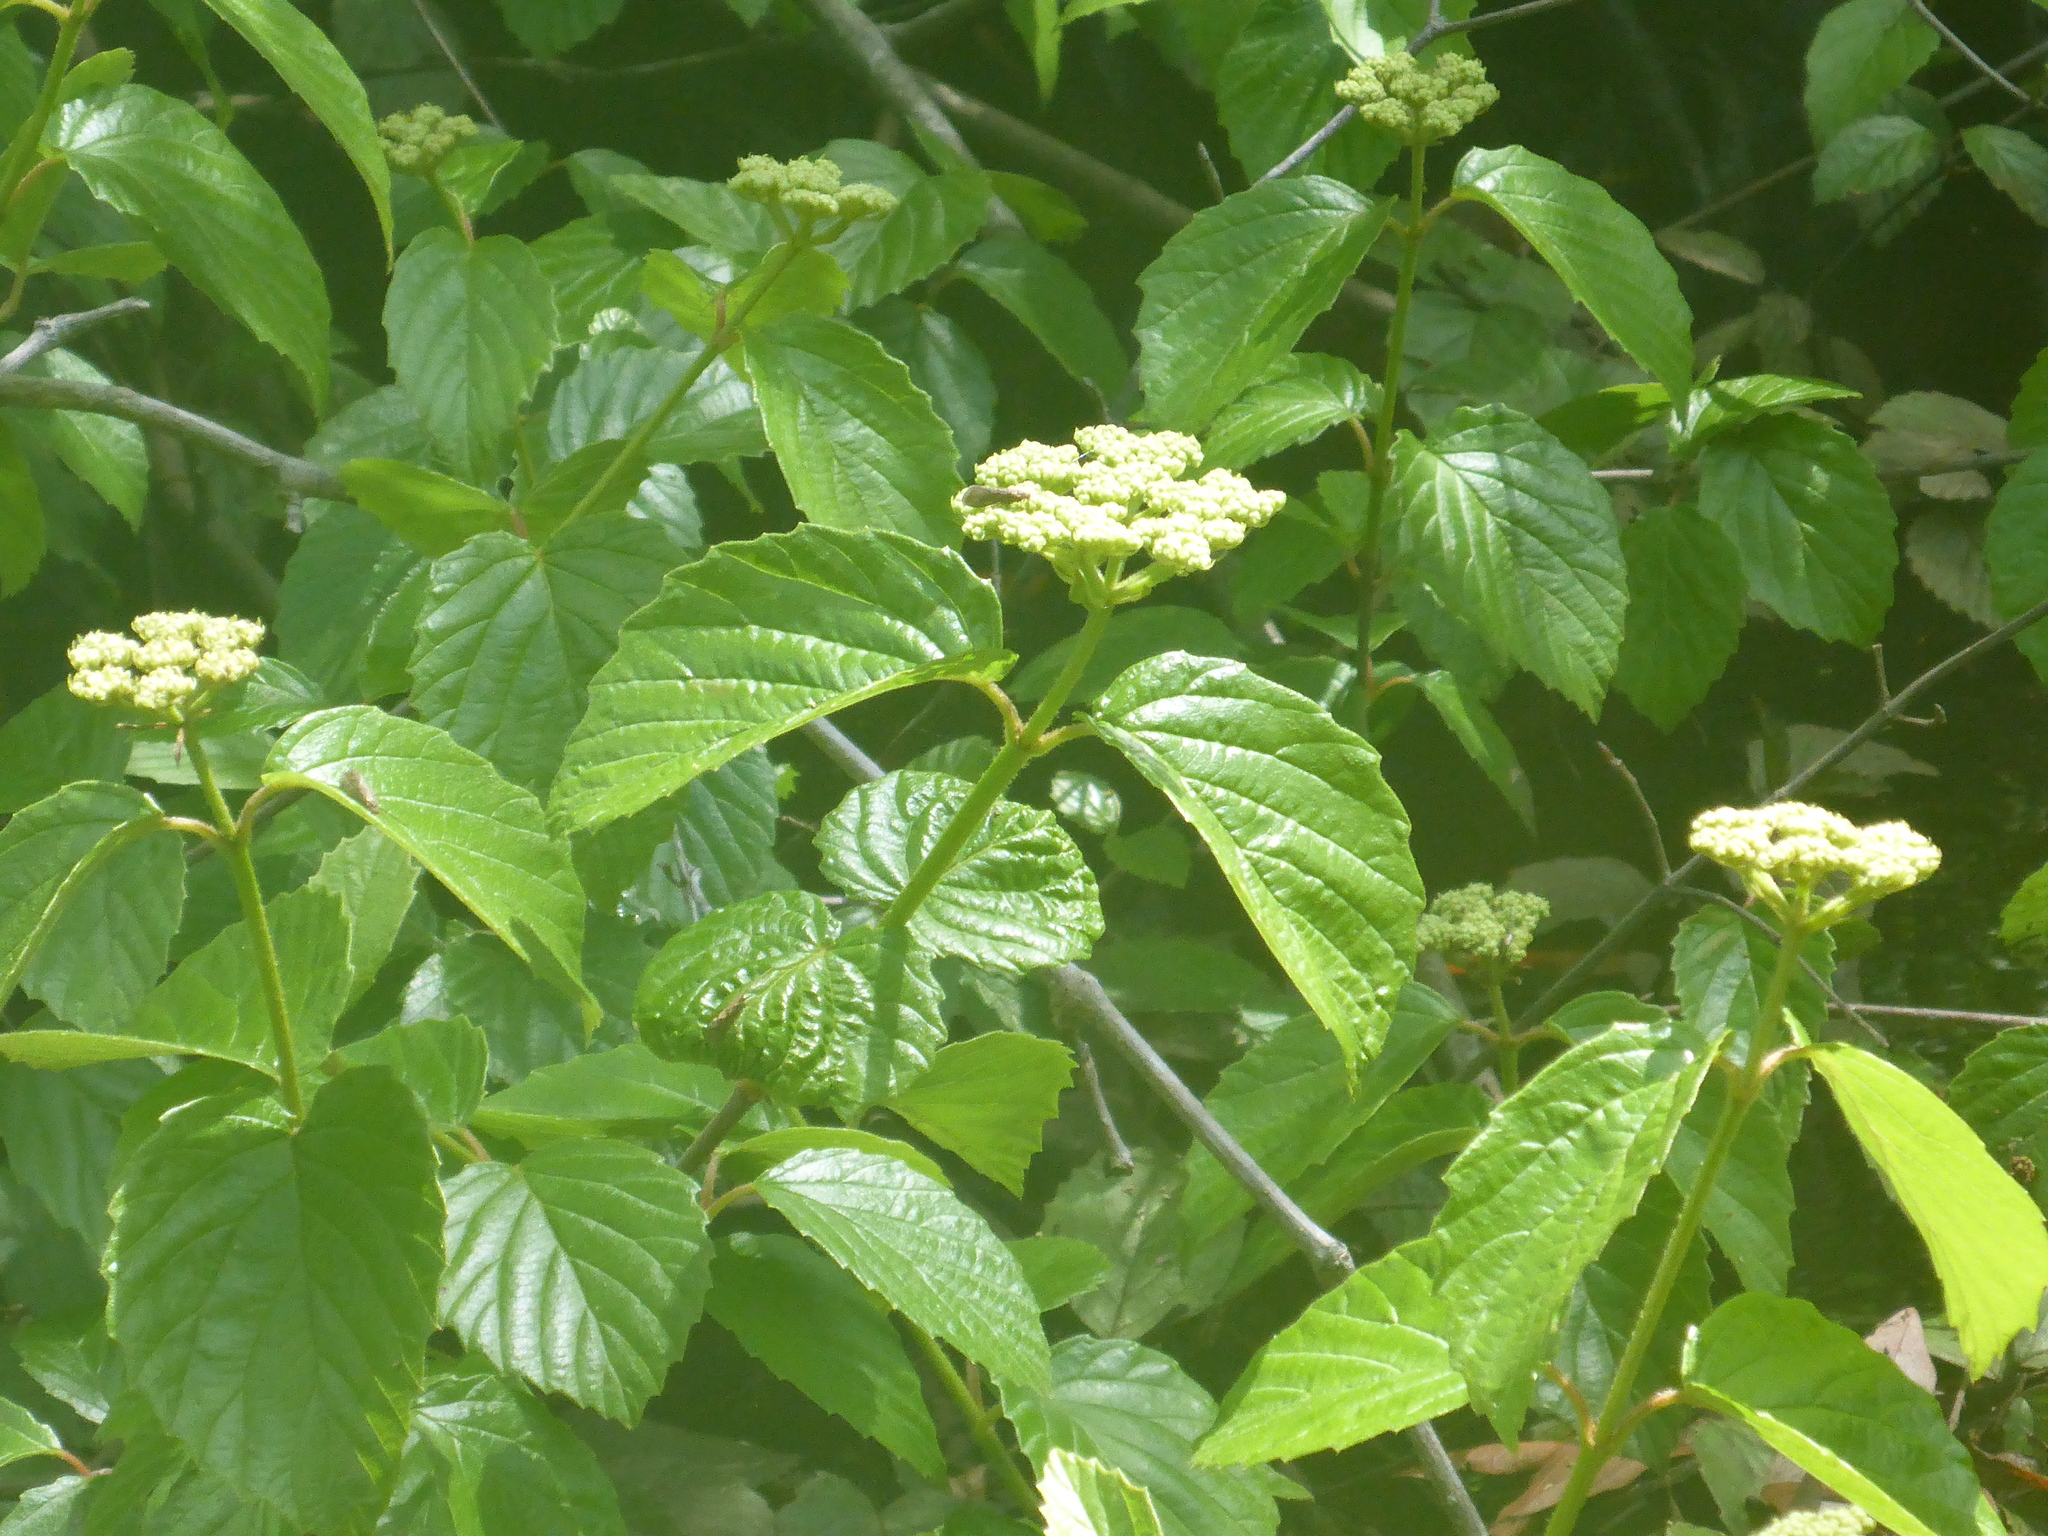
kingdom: Plantae
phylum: Tracheophyta
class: Magnoliopsida
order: Dipsacales
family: Viburnaceae
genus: Viburnum
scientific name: Viburnum scabrellum
